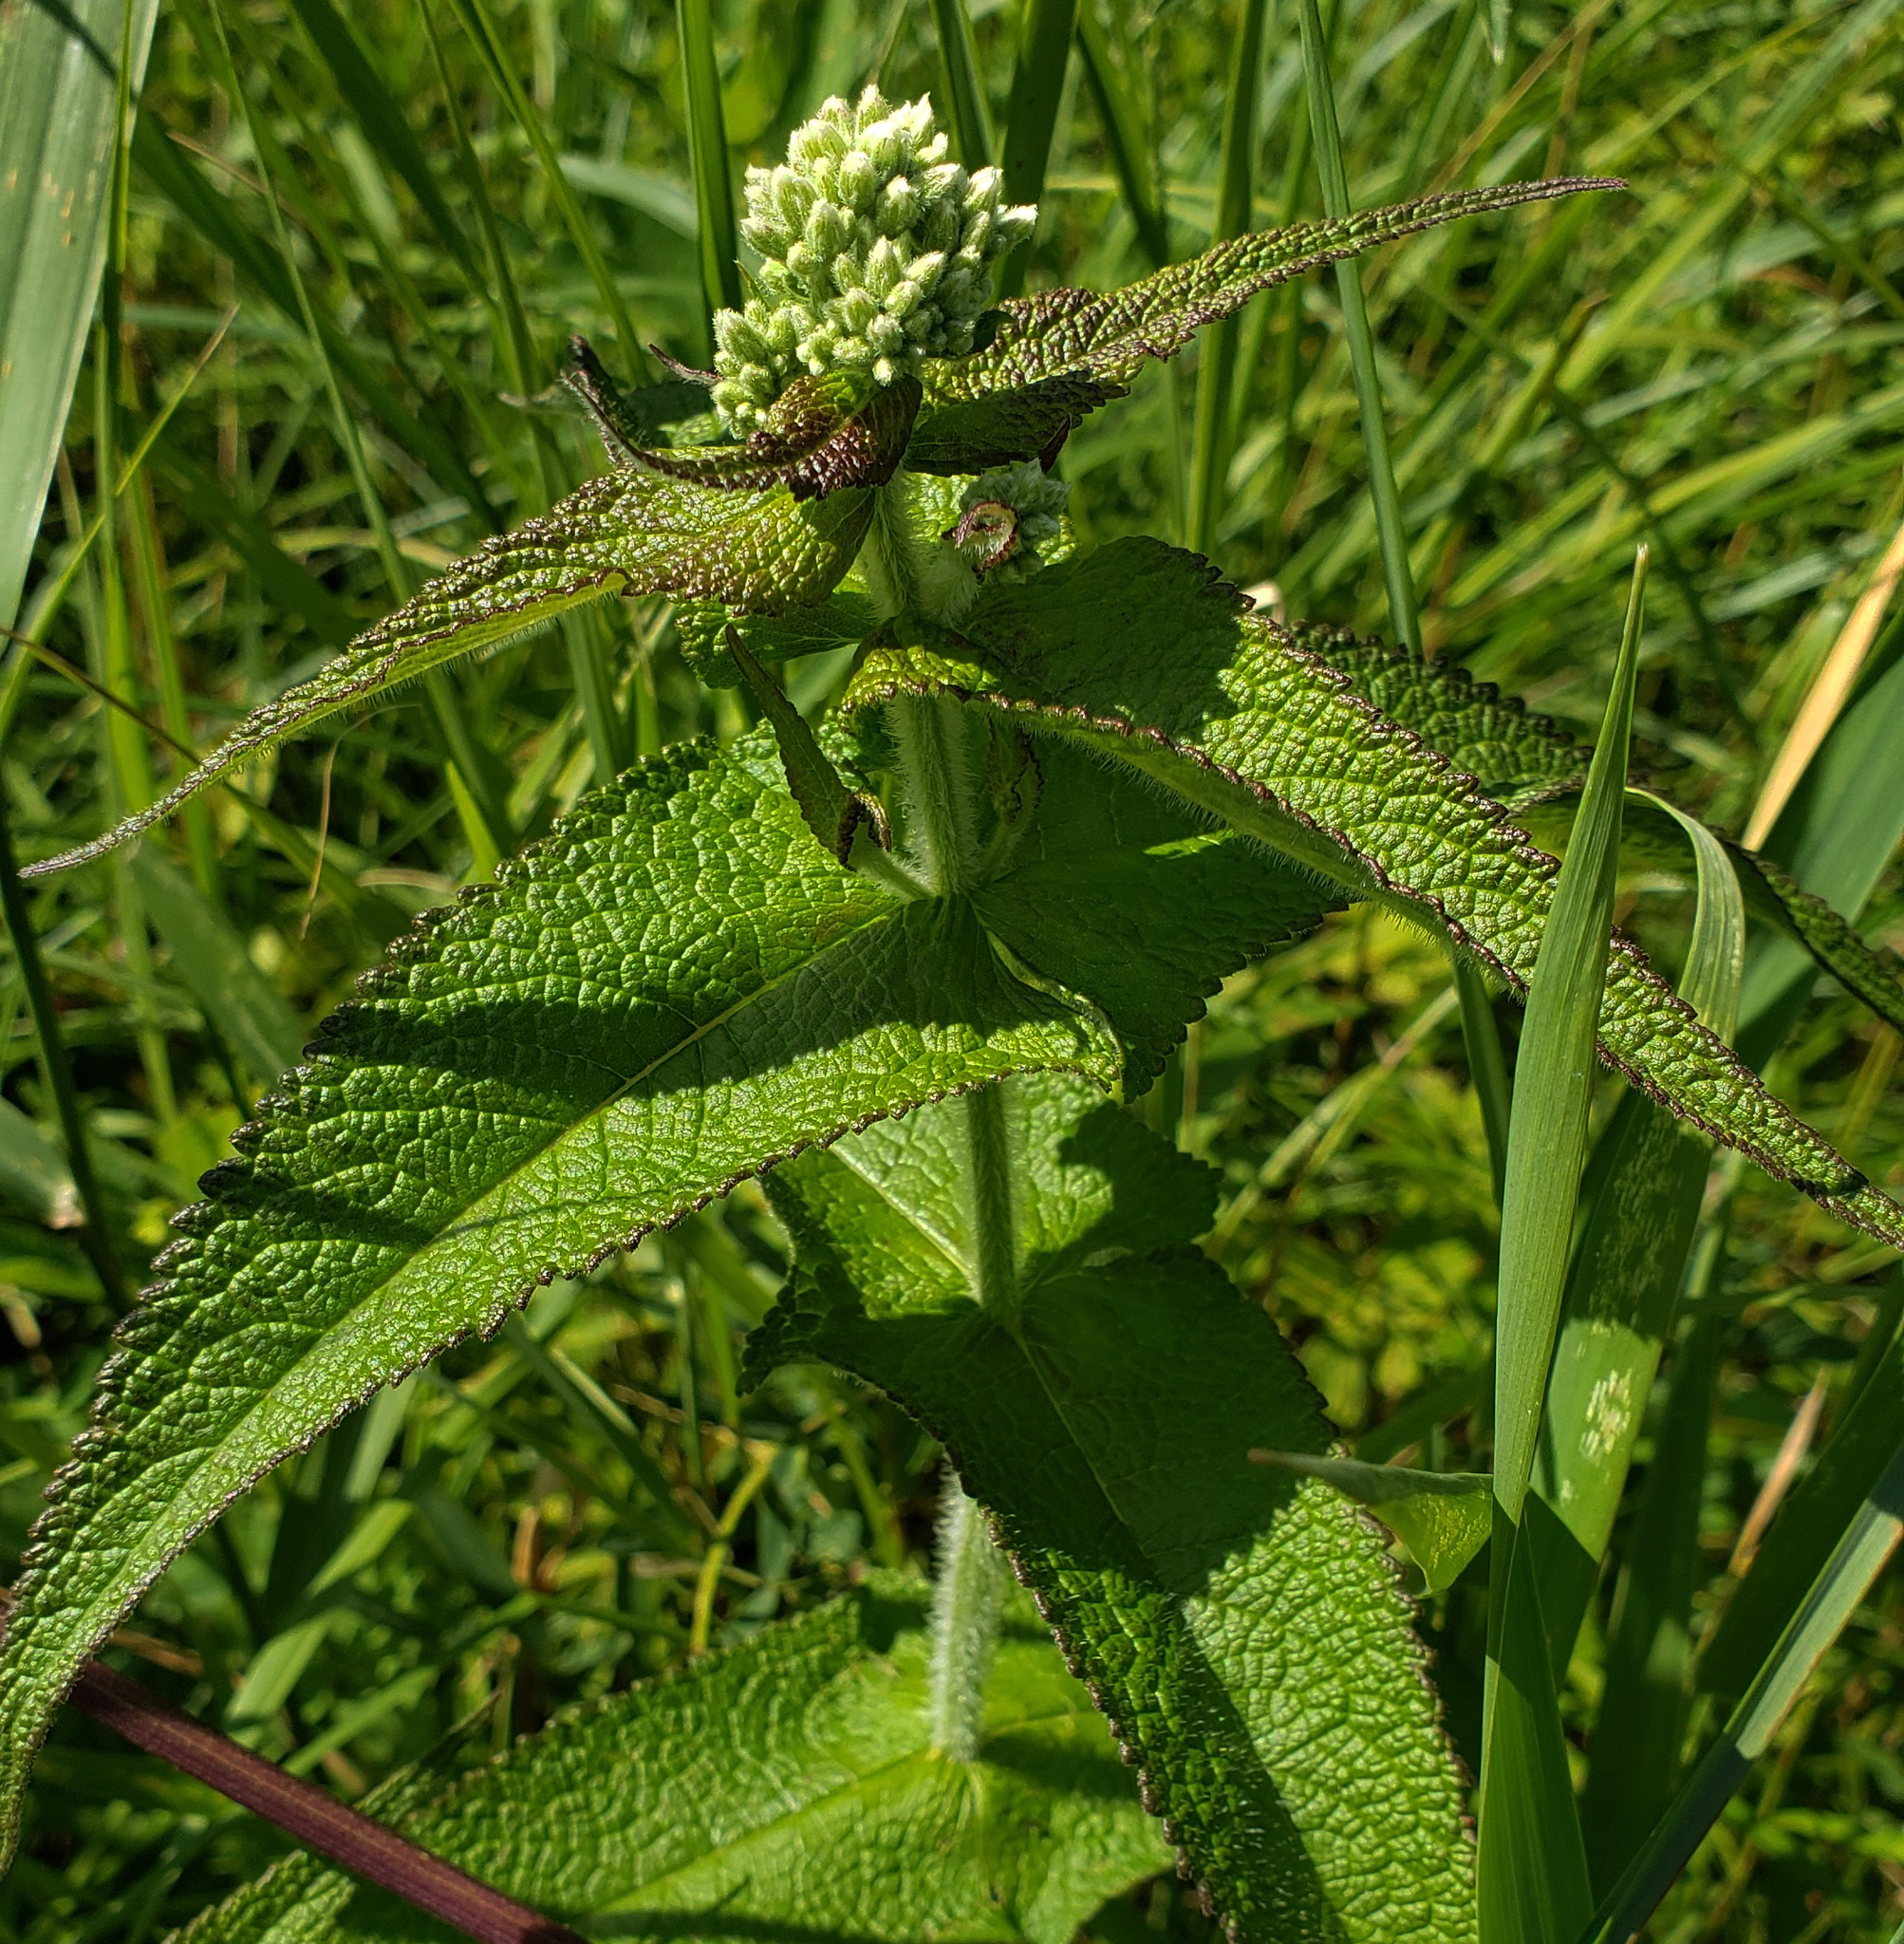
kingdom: Plantae
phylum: Tracheophyta
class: Magnoliopsida
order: Asterales
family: Asteraceae
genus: Eupatorium
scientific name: Eupatorium perfoliatum
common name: Boneset
